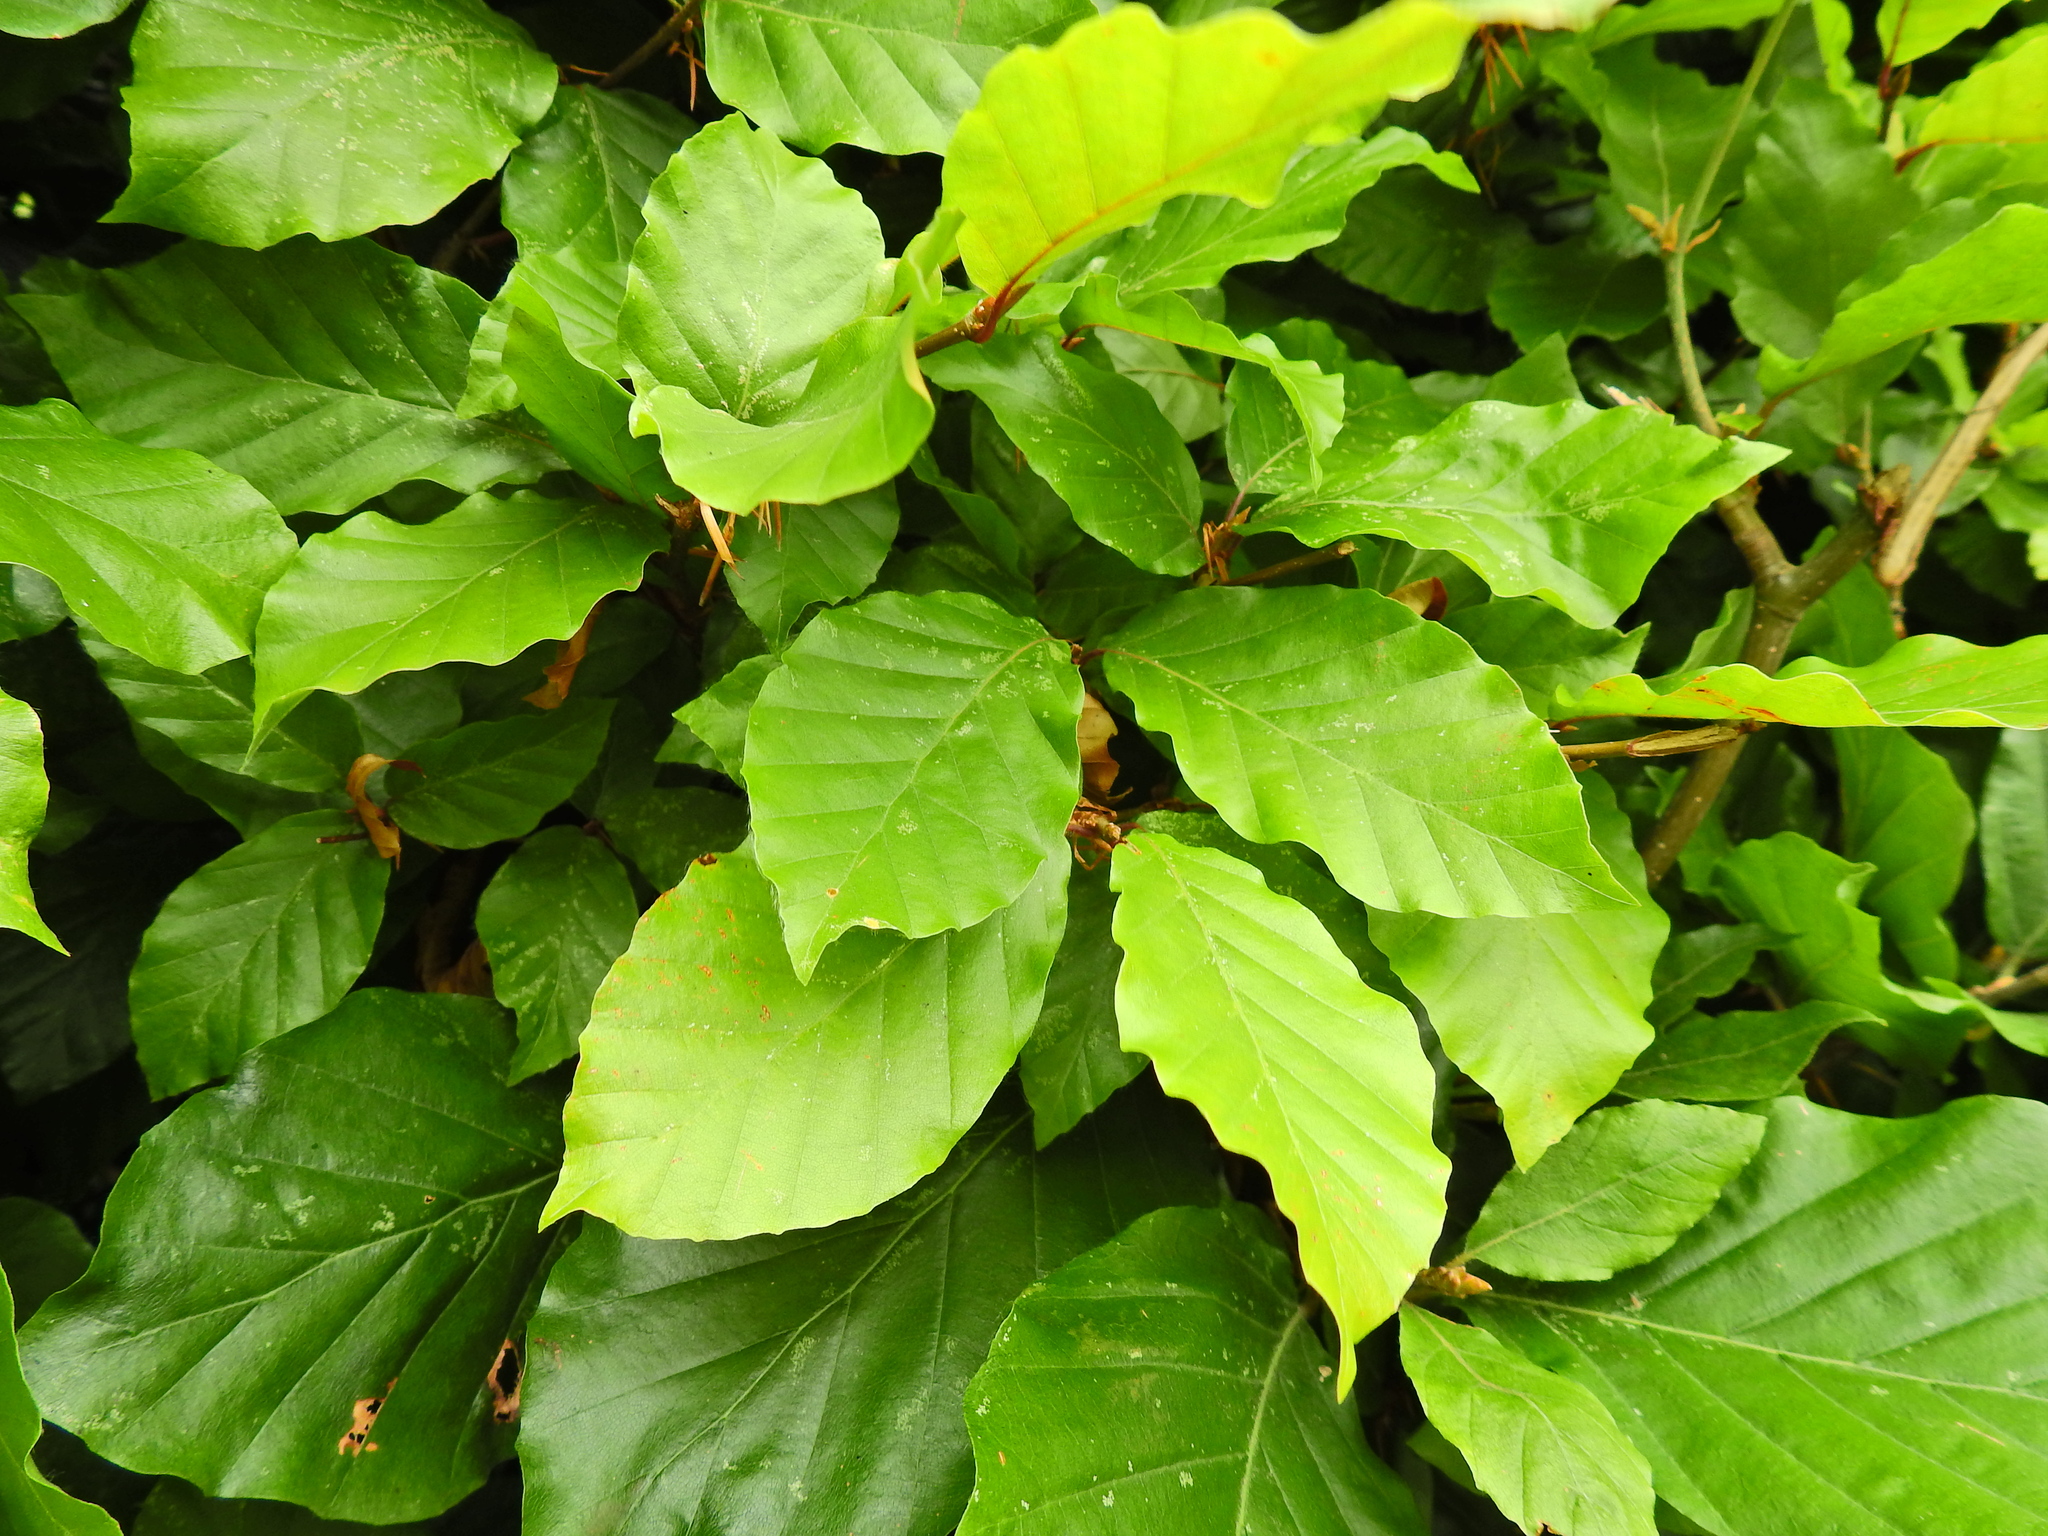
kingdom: Plantae
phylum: Tracheophyta
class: Magnoliopsida
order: Fagales
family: Fagaceae
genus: Fagus
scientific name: Fagus sylvatica
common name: Beech
